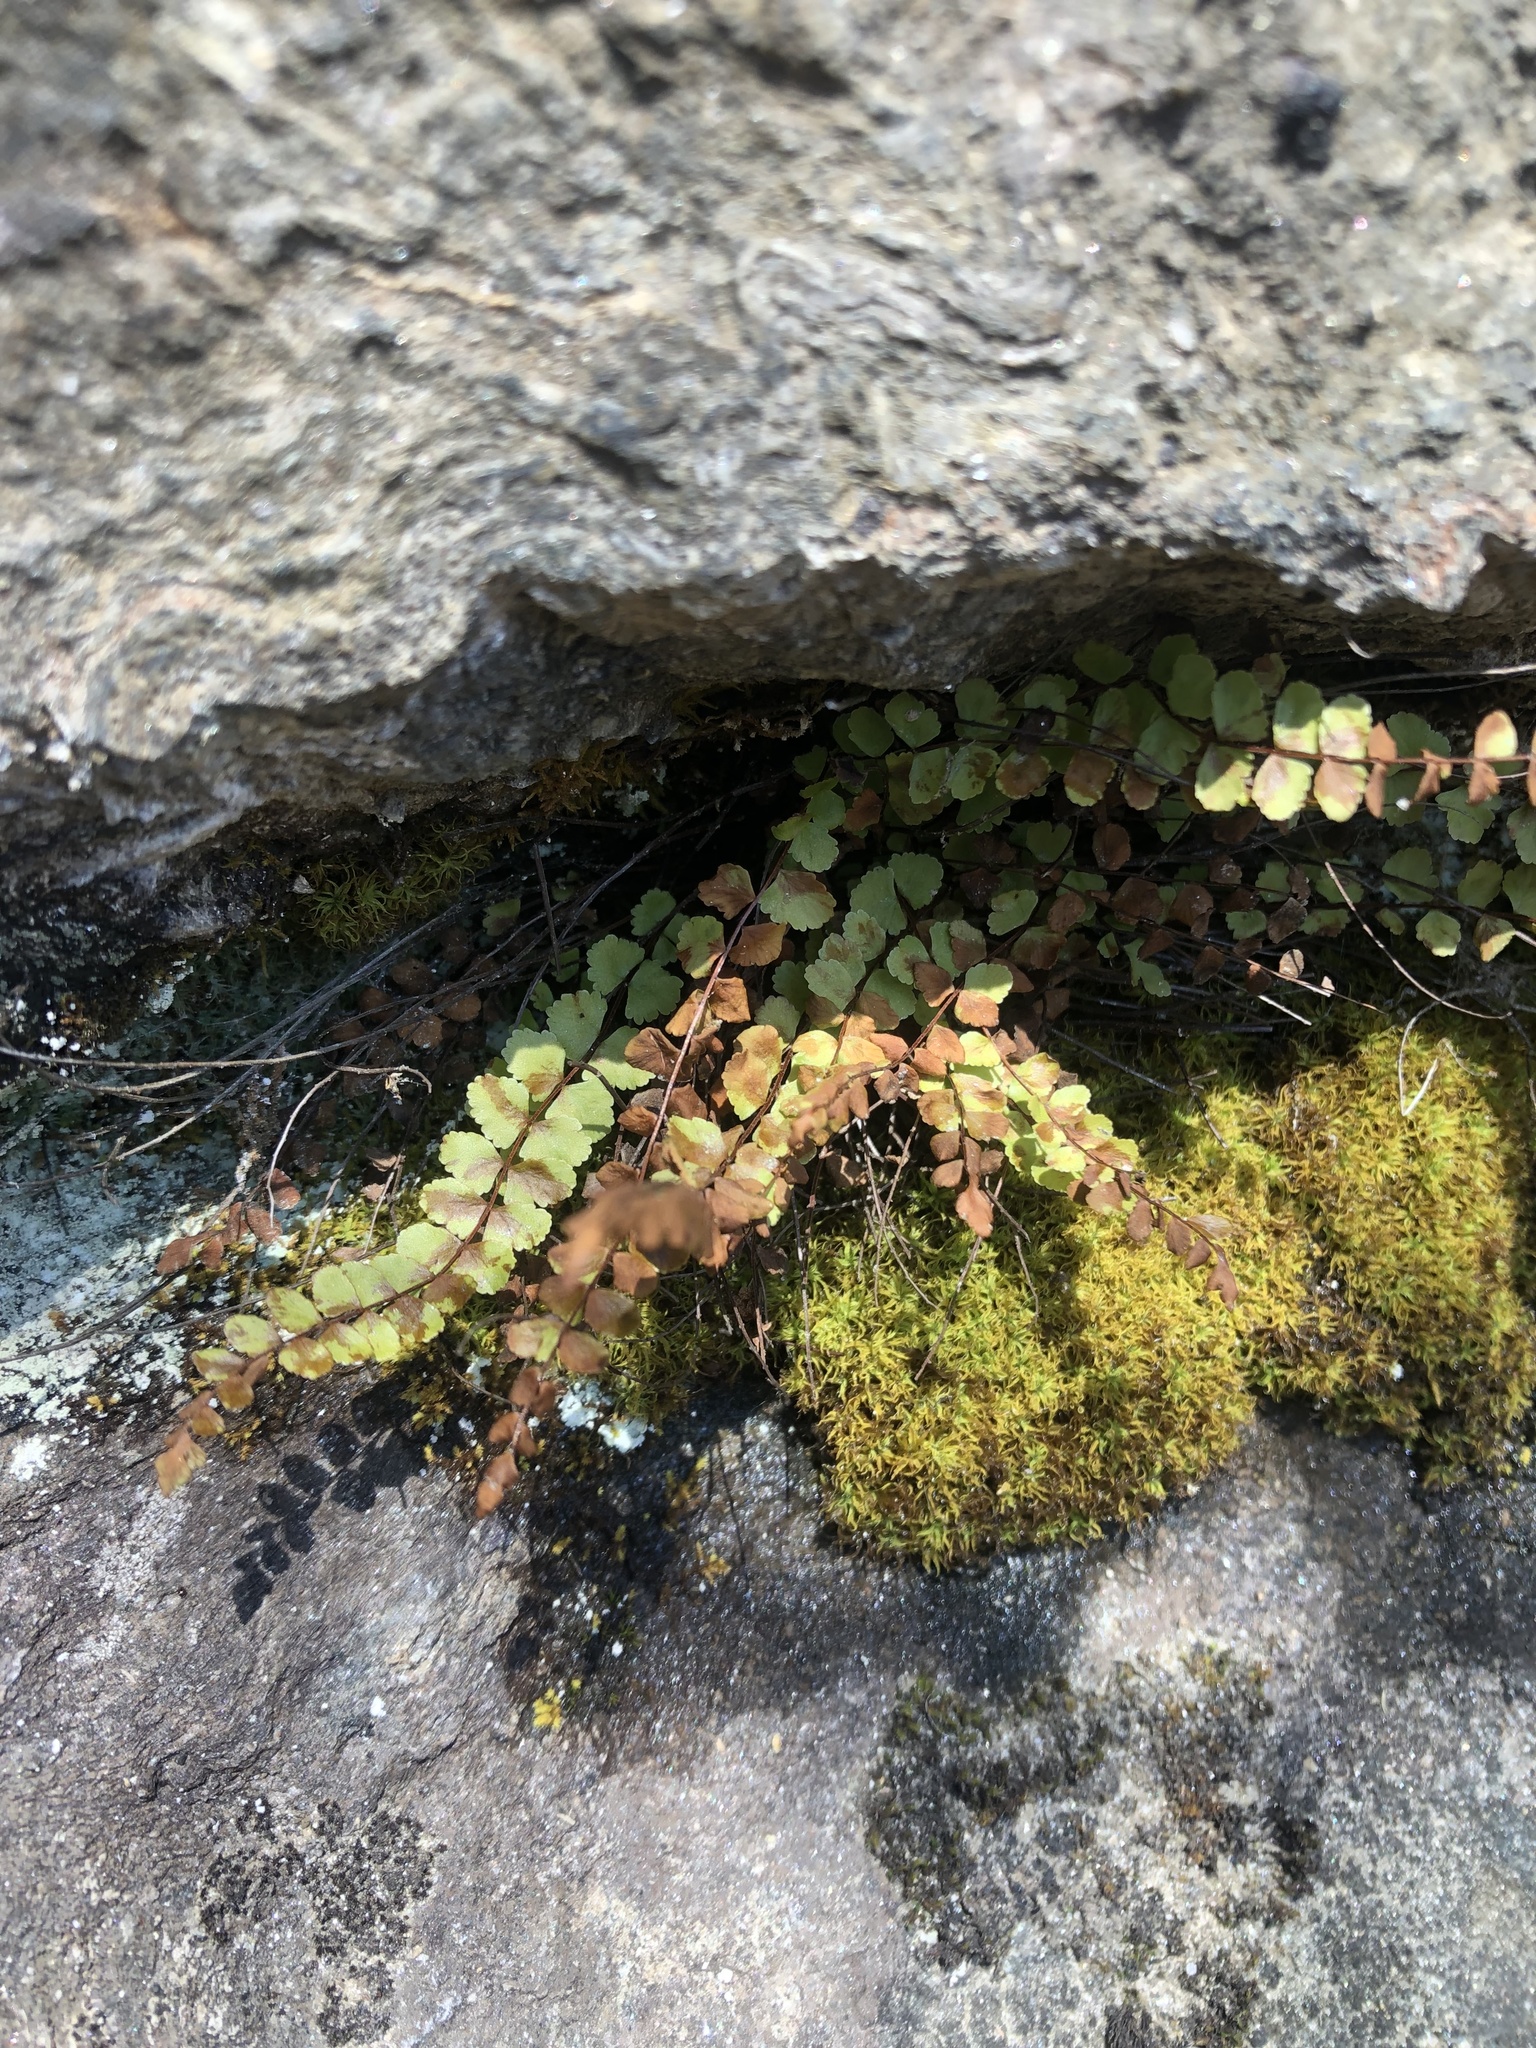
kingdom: Plantae
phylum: Tracheophyta
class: Polypodiopsida
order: Polypodiales
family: Aspleniaceae
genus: Asplenium
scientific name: Asplenium trichomanes
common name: Maidenhair spleenwort
